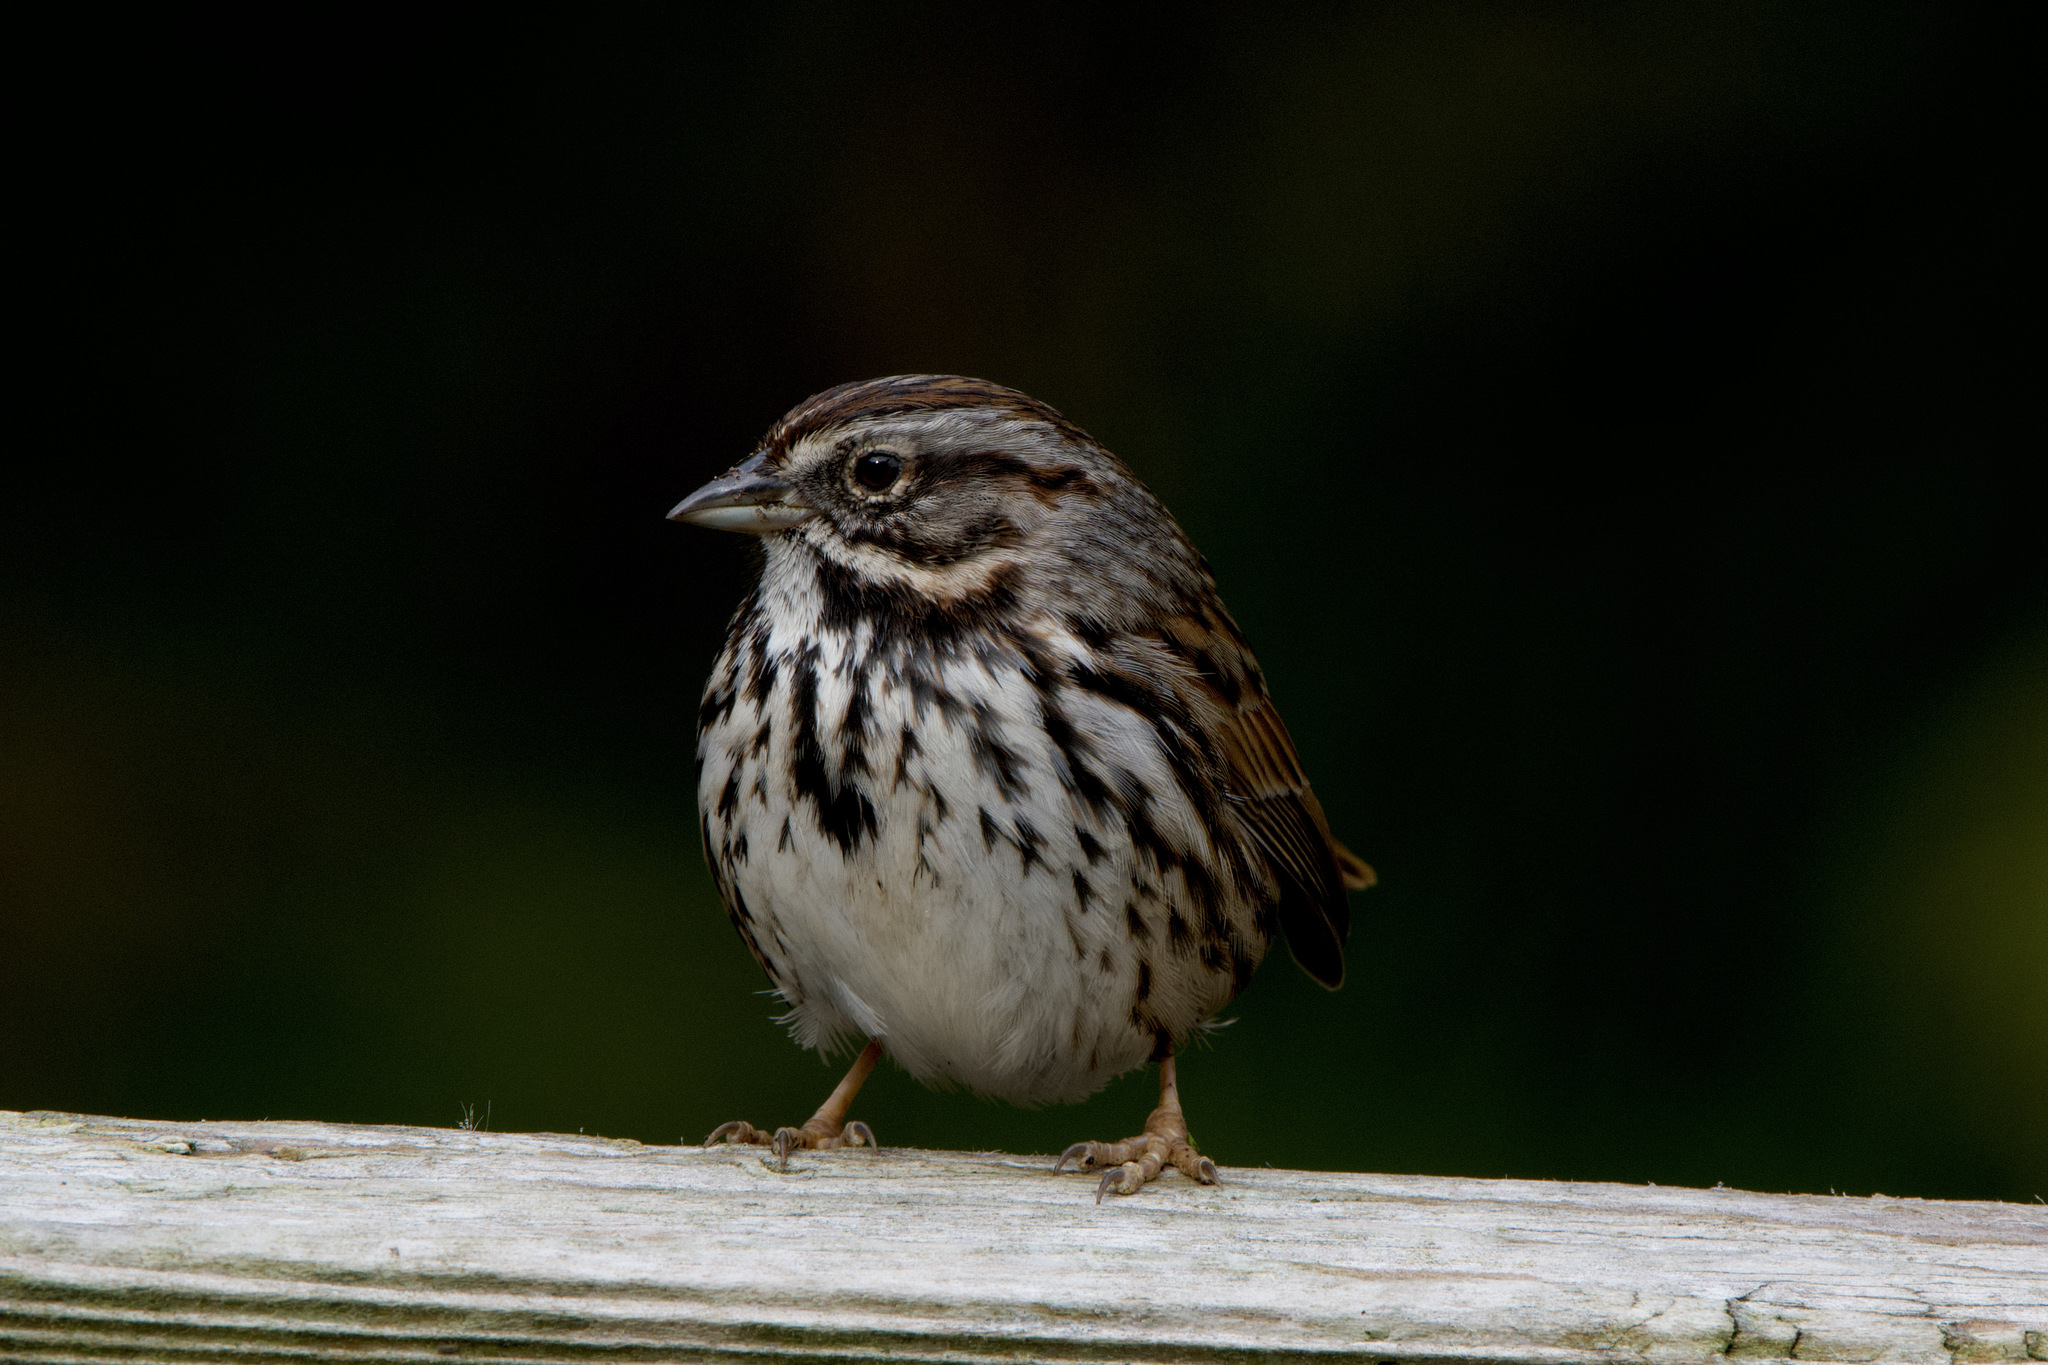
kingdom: Animalia
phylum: Chordata
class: Aves
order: Passeriformes
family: Passerellidae
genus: Melospiza
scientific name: Melospiza melodia
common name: Song sparrow
